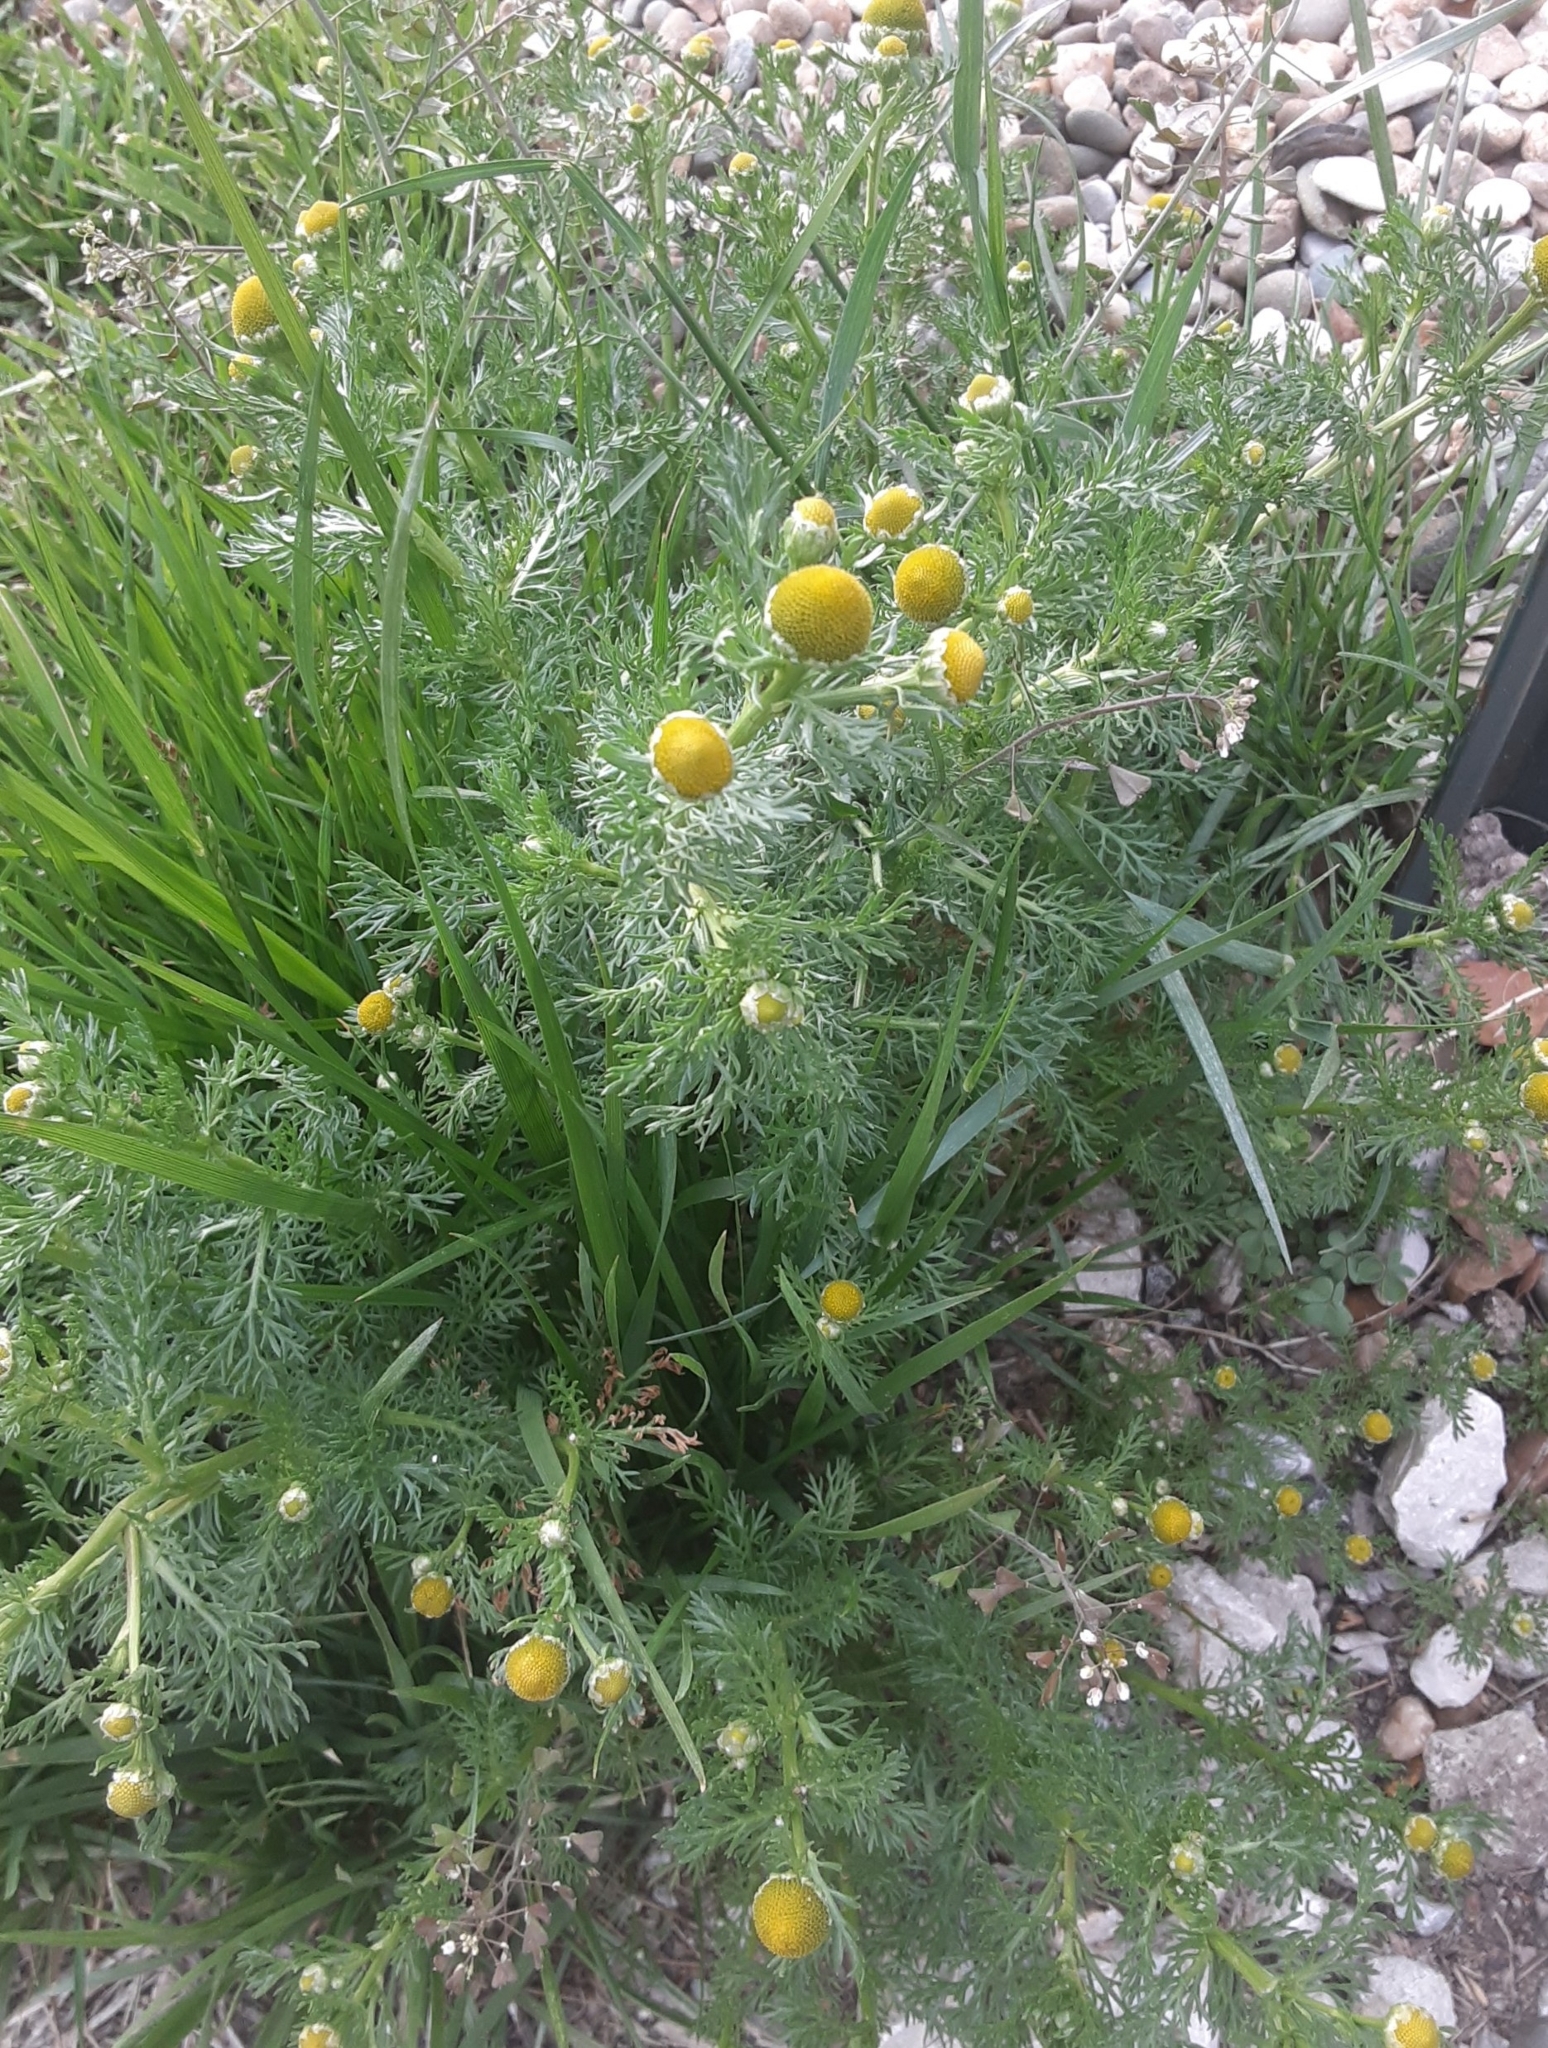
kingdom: Plantae
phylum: Tracheophyta
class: Magnoliopsida
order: Asterales
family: Asteraceae
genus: Matricaria
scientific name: Matricaria discoidea
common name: Disc mayweed
